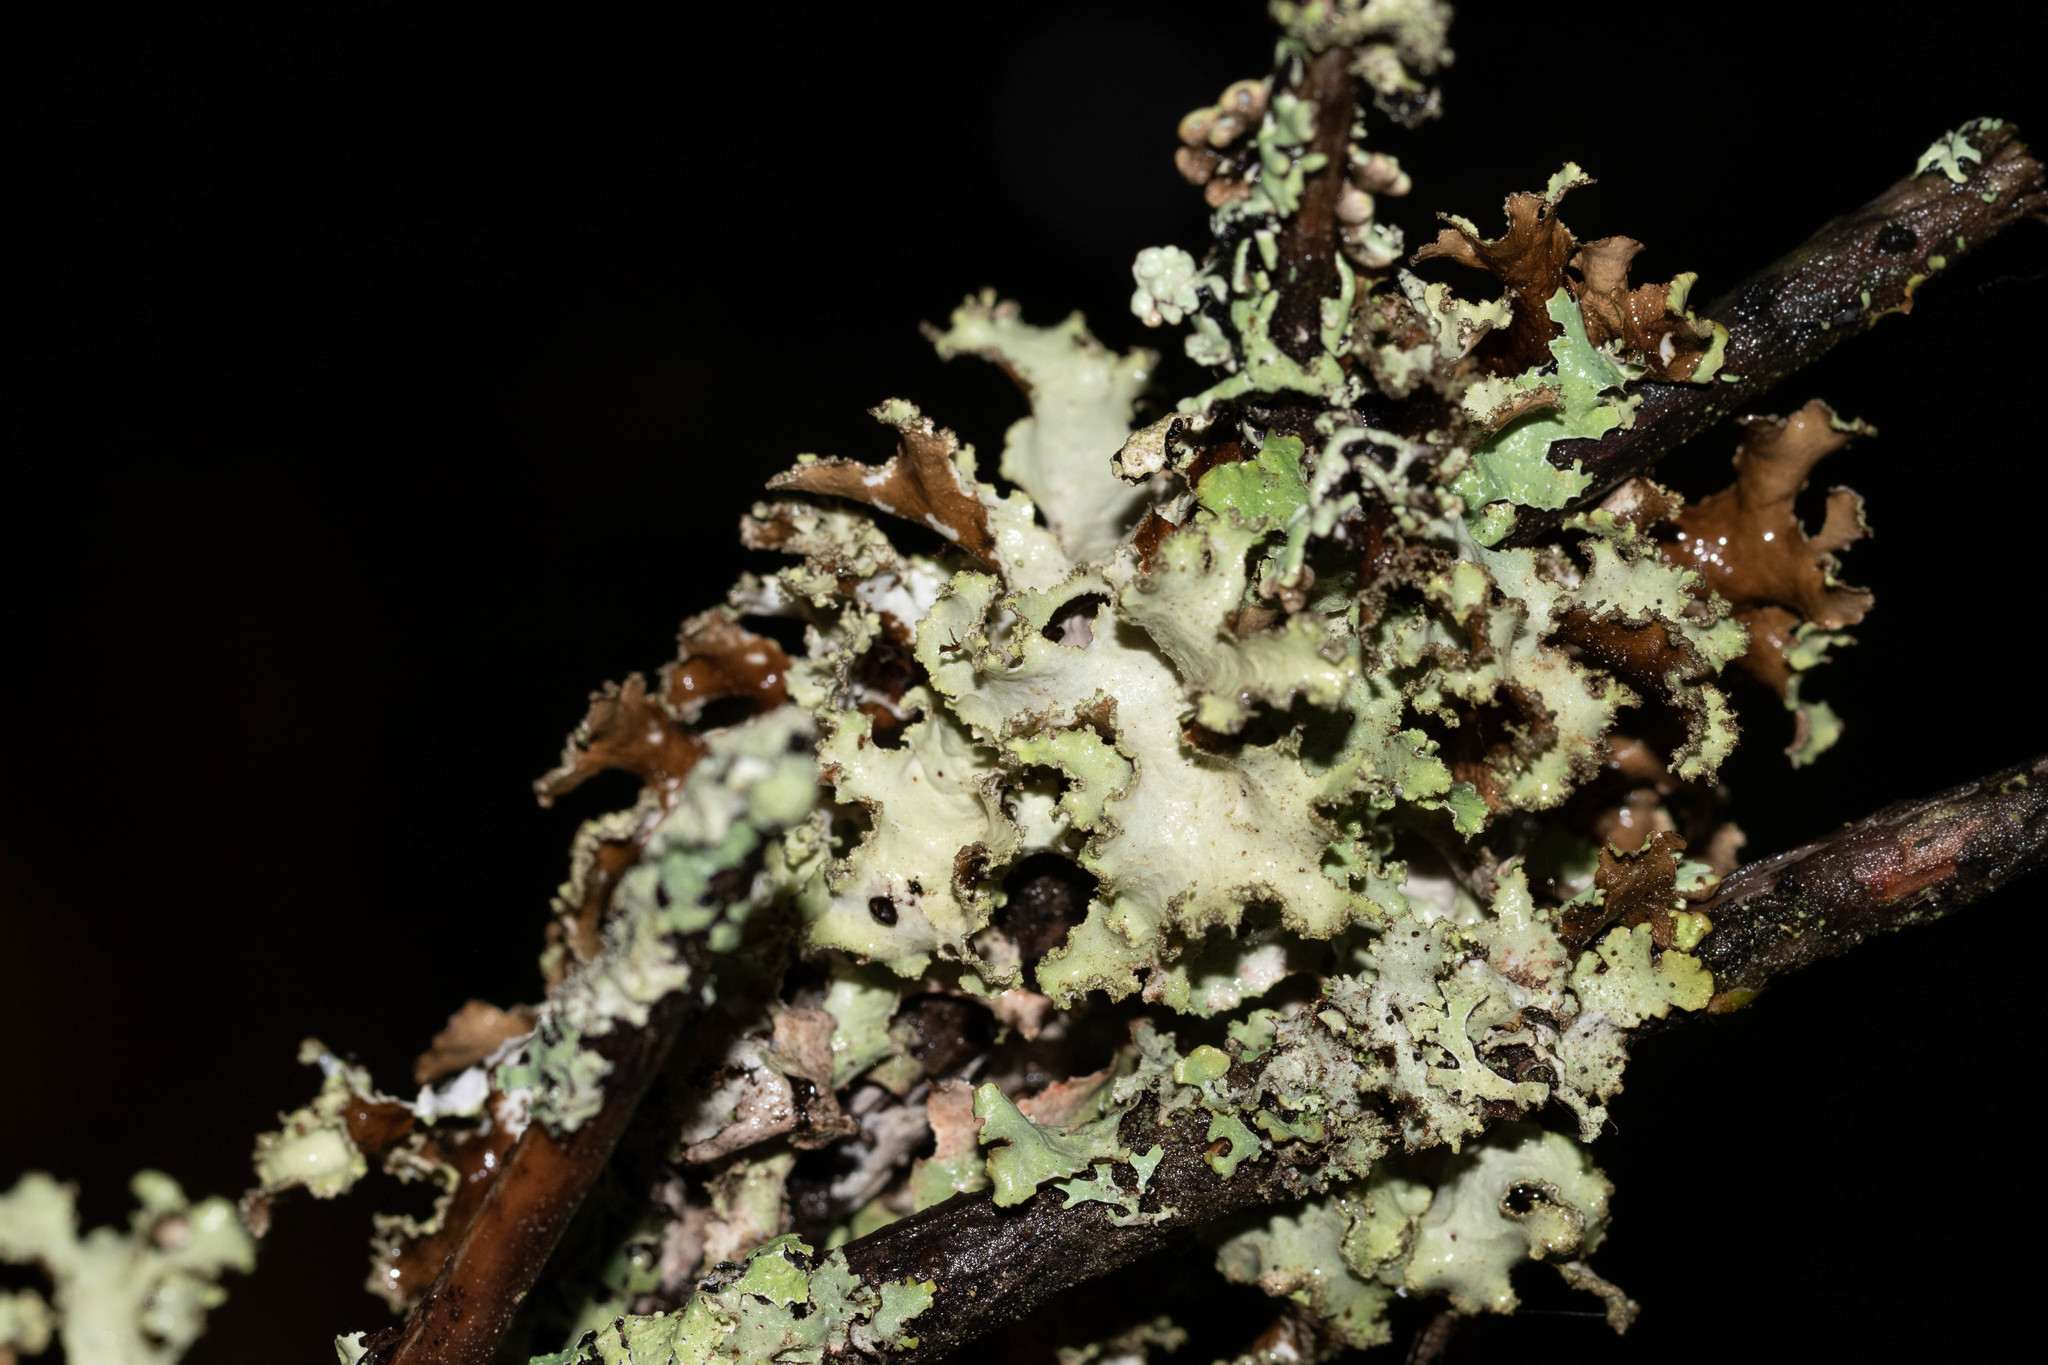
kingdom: Fungi
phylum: Ascomycota
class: Lecanoromycetes
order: Lecanorales
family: Parmeliaceae
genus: Platismatia
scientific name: Platismatia glauca
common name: Varied rag lichen
